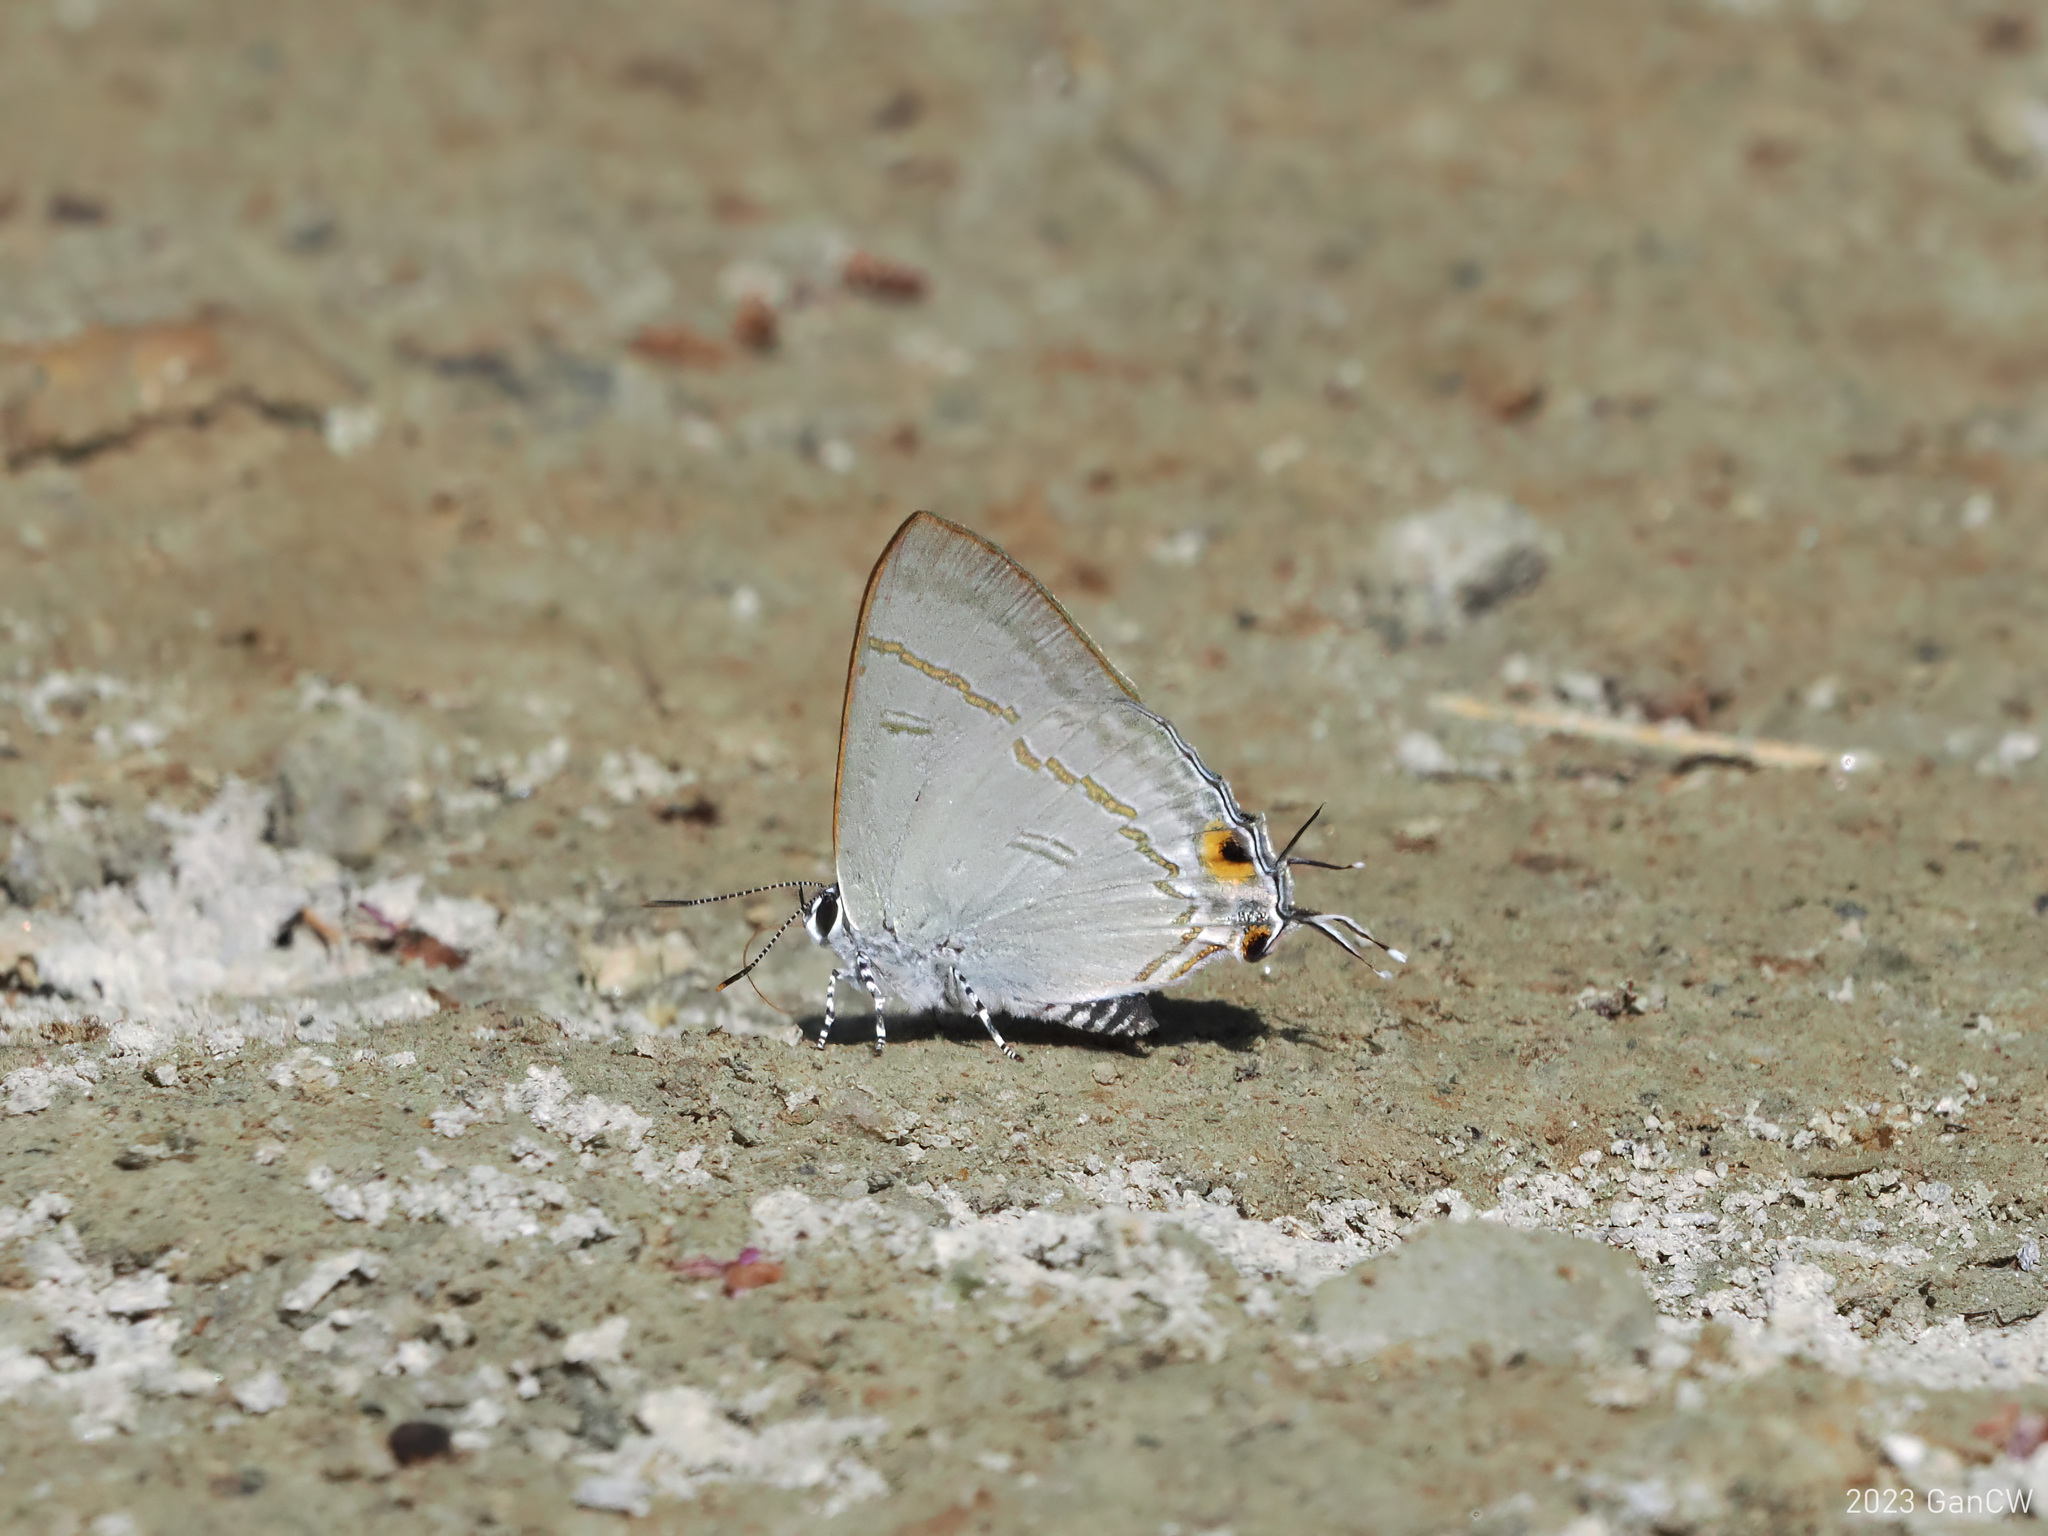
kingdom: Animalia
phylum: Arthropoda
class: Insecta
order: Lepidoptera
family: Lycaenidae
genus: Hypolycaena
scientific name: Hypolycaena erylus
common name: Common tit
